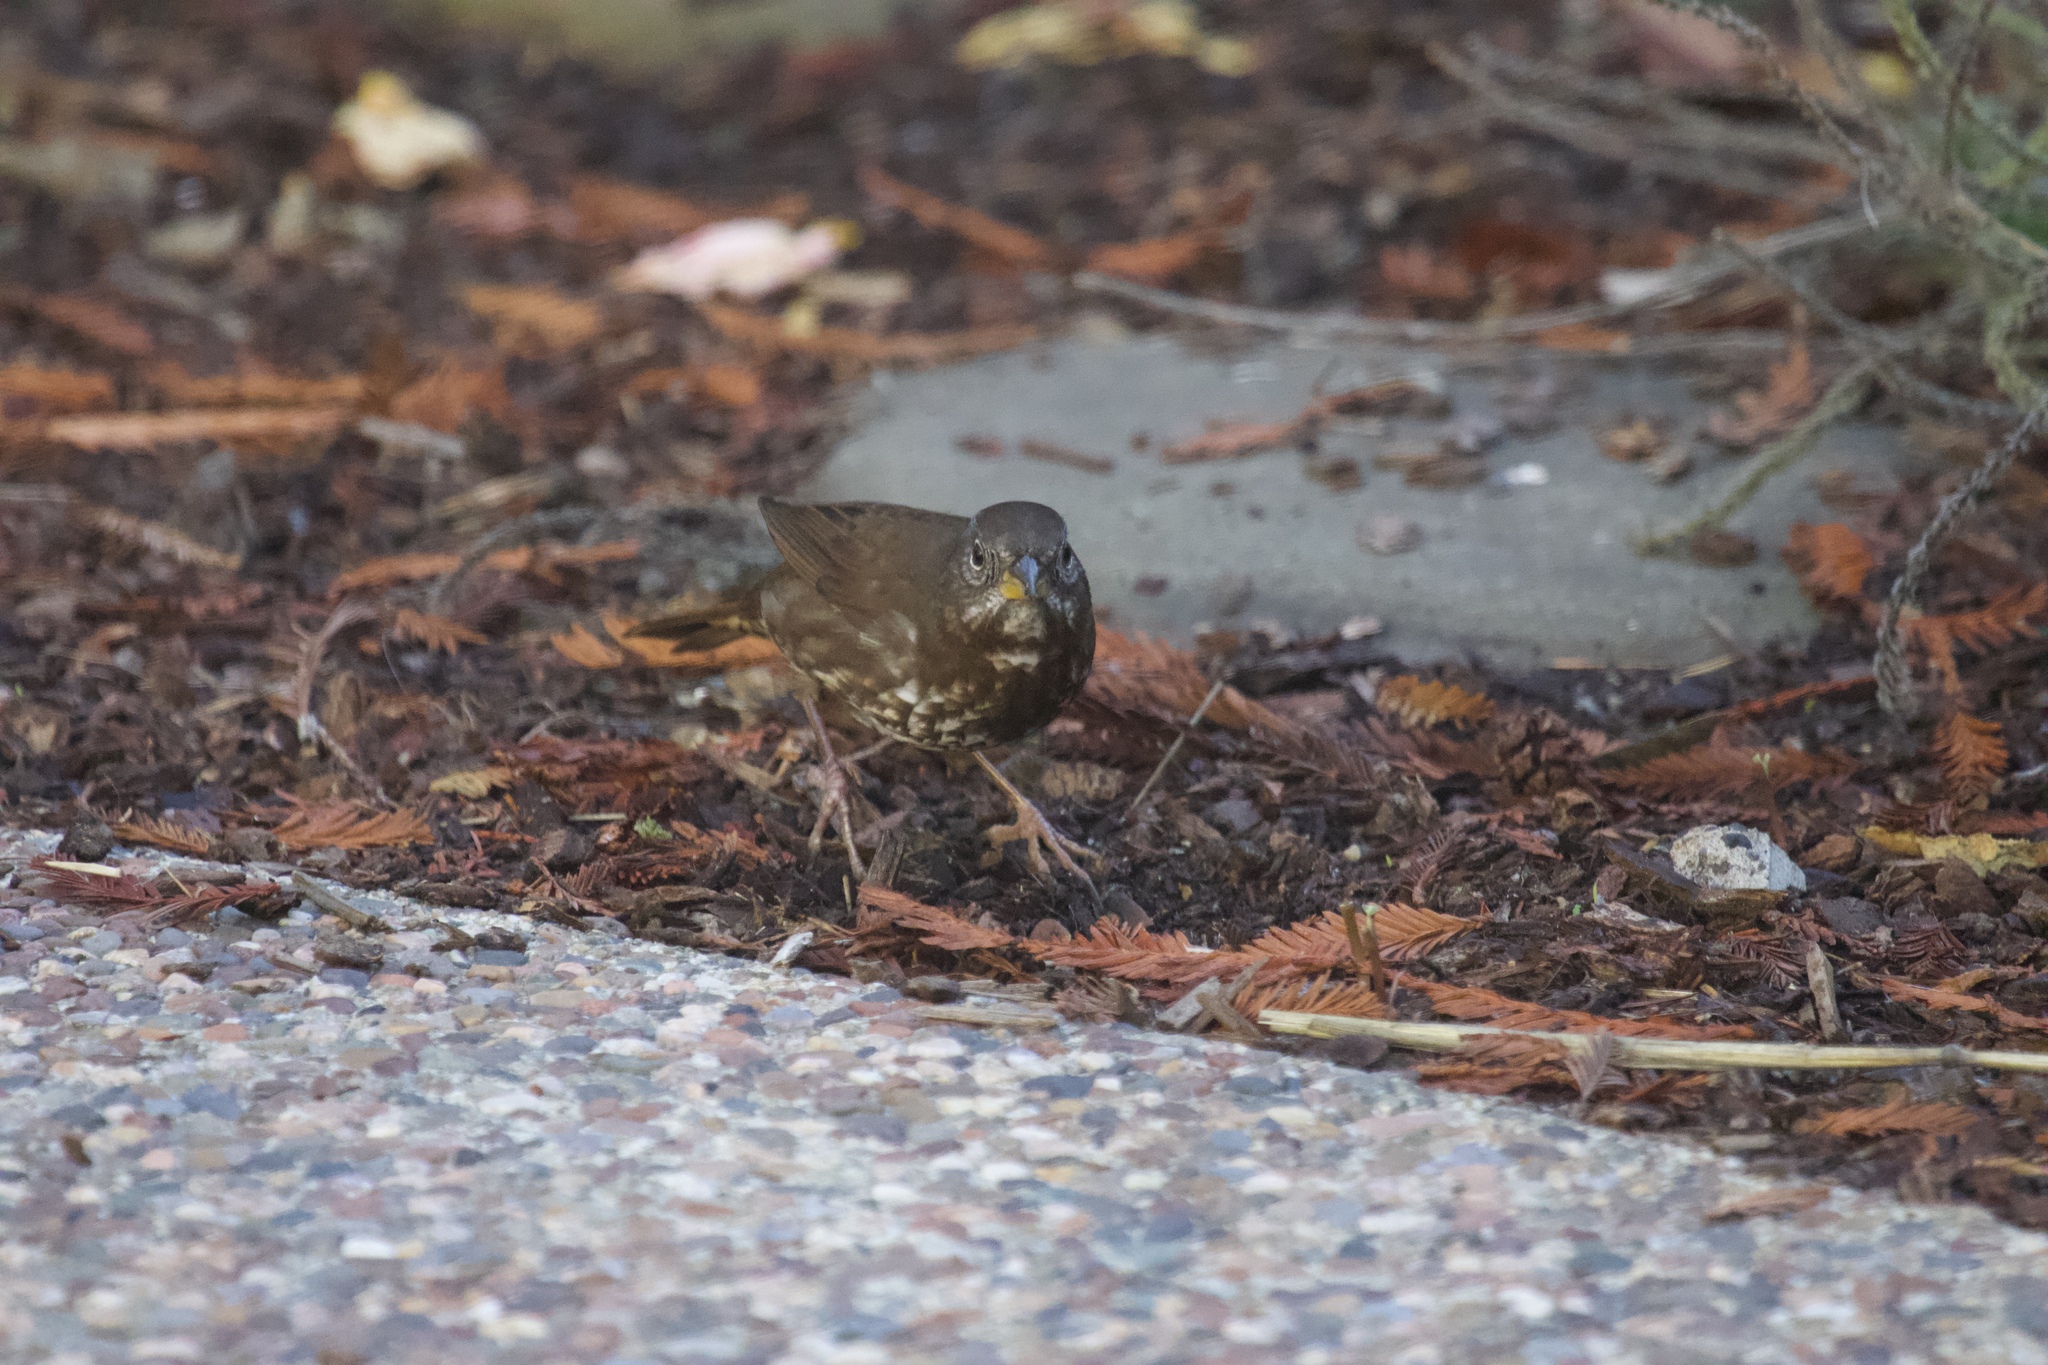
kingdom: Animalia
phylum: Chordata
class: Aves
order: Passeriformes
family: Passerellidae
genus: Passerella
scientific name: Passerella iliaca
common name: Fox sparrow
